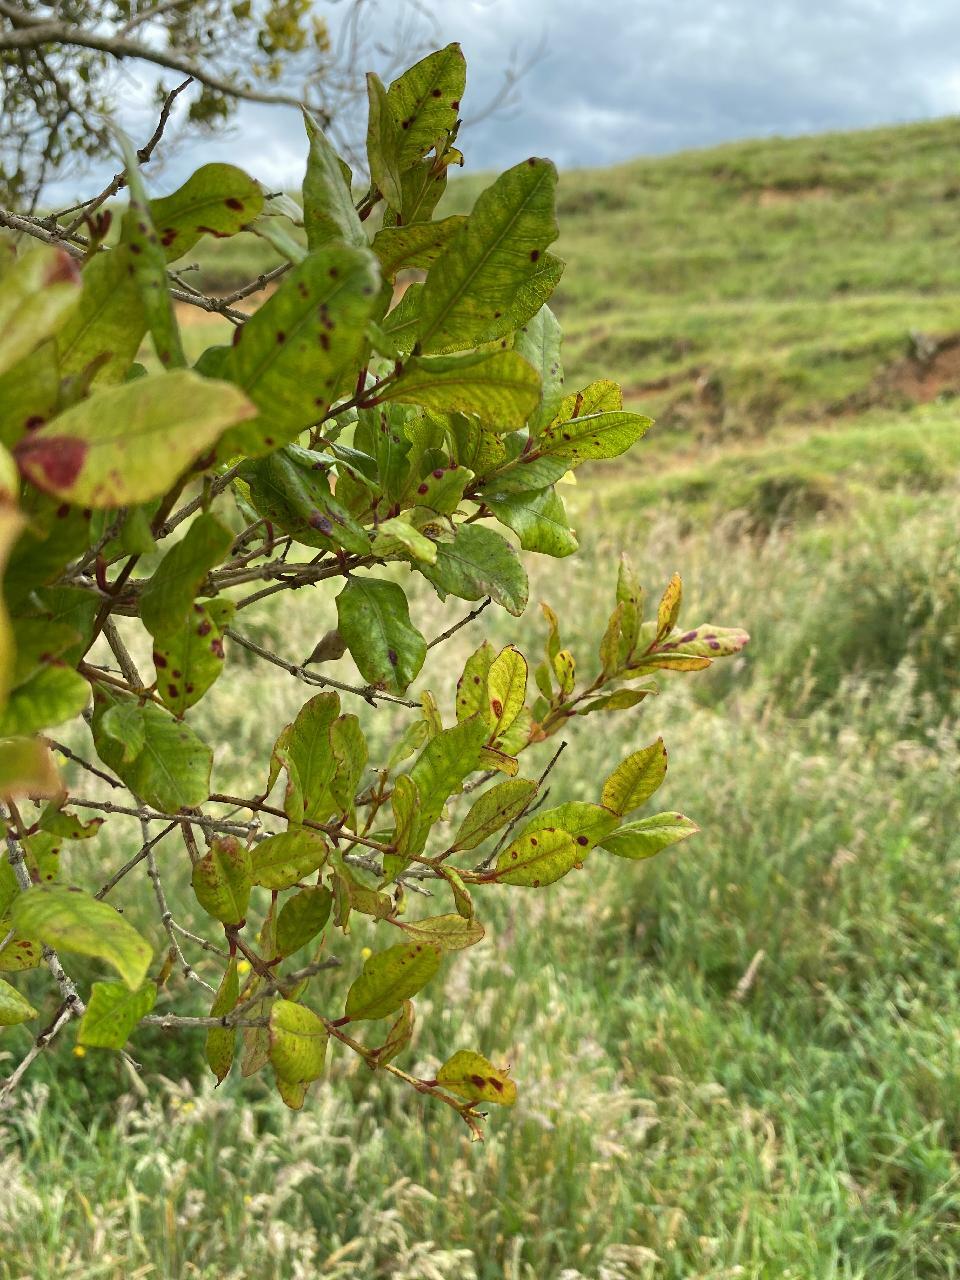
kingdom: Plantae
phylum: Tracheophyta
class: Magnoliopsida
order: Myrtales
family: Myrtaceae
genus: Syzygium
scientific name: Syzygium maire
